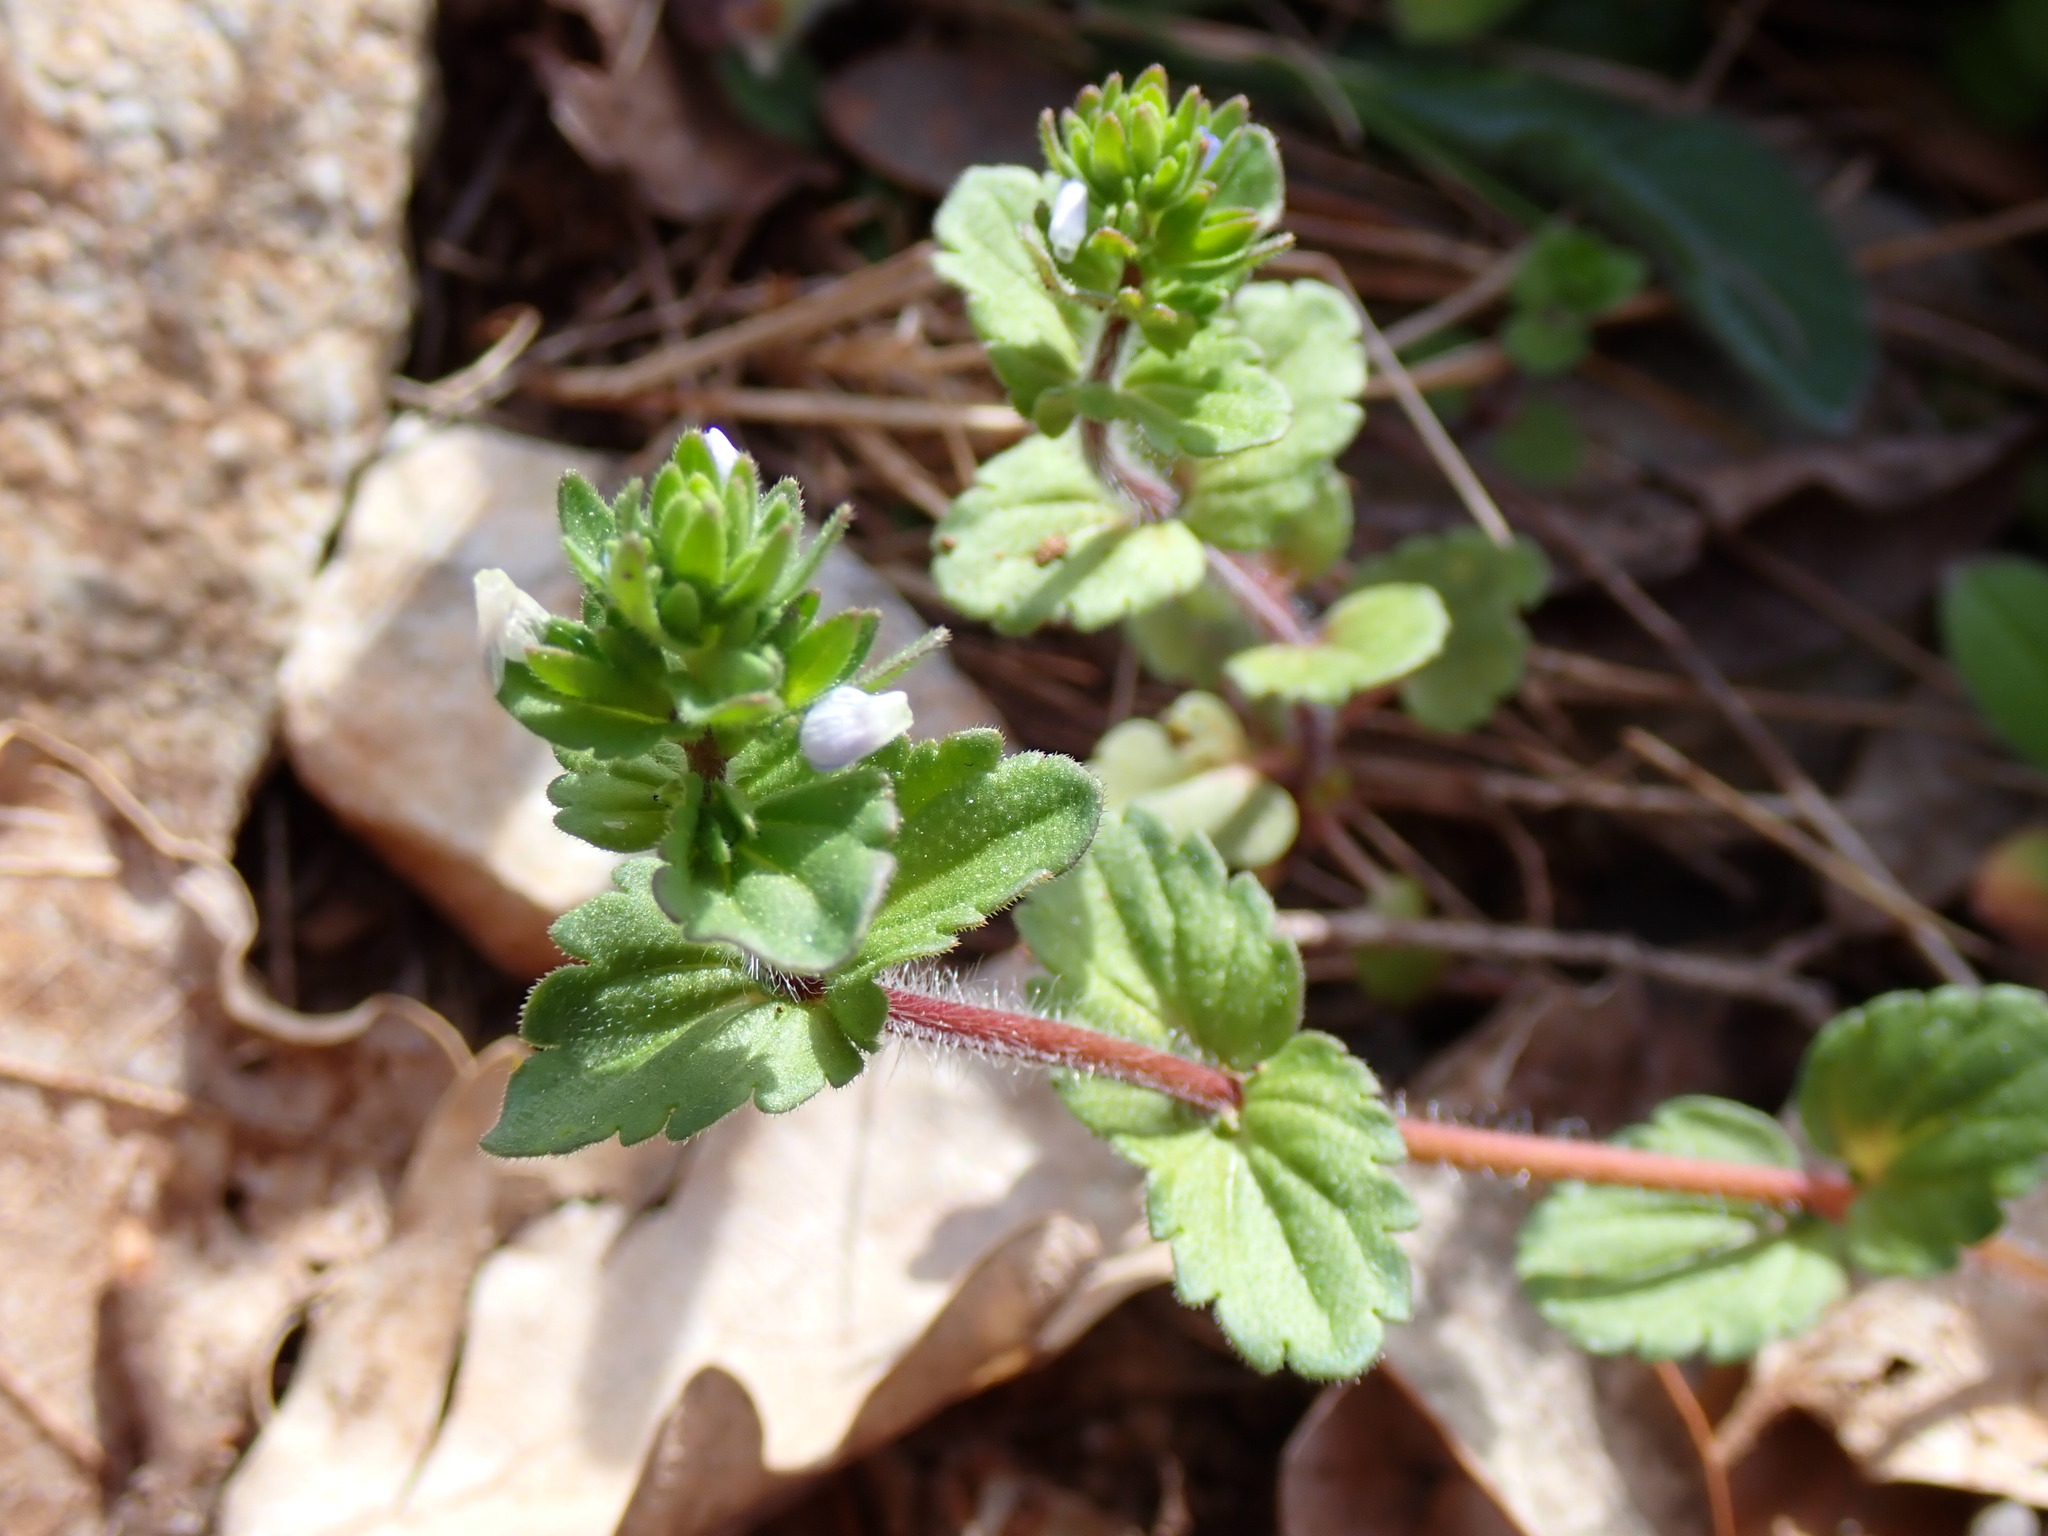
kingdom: Plantae
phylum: Tracheophyta
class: Magnoliopsida
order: Lamiales
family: Plantaginaceae
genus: Veronica
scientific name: Veronica arvensis
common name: Corn speedwell
